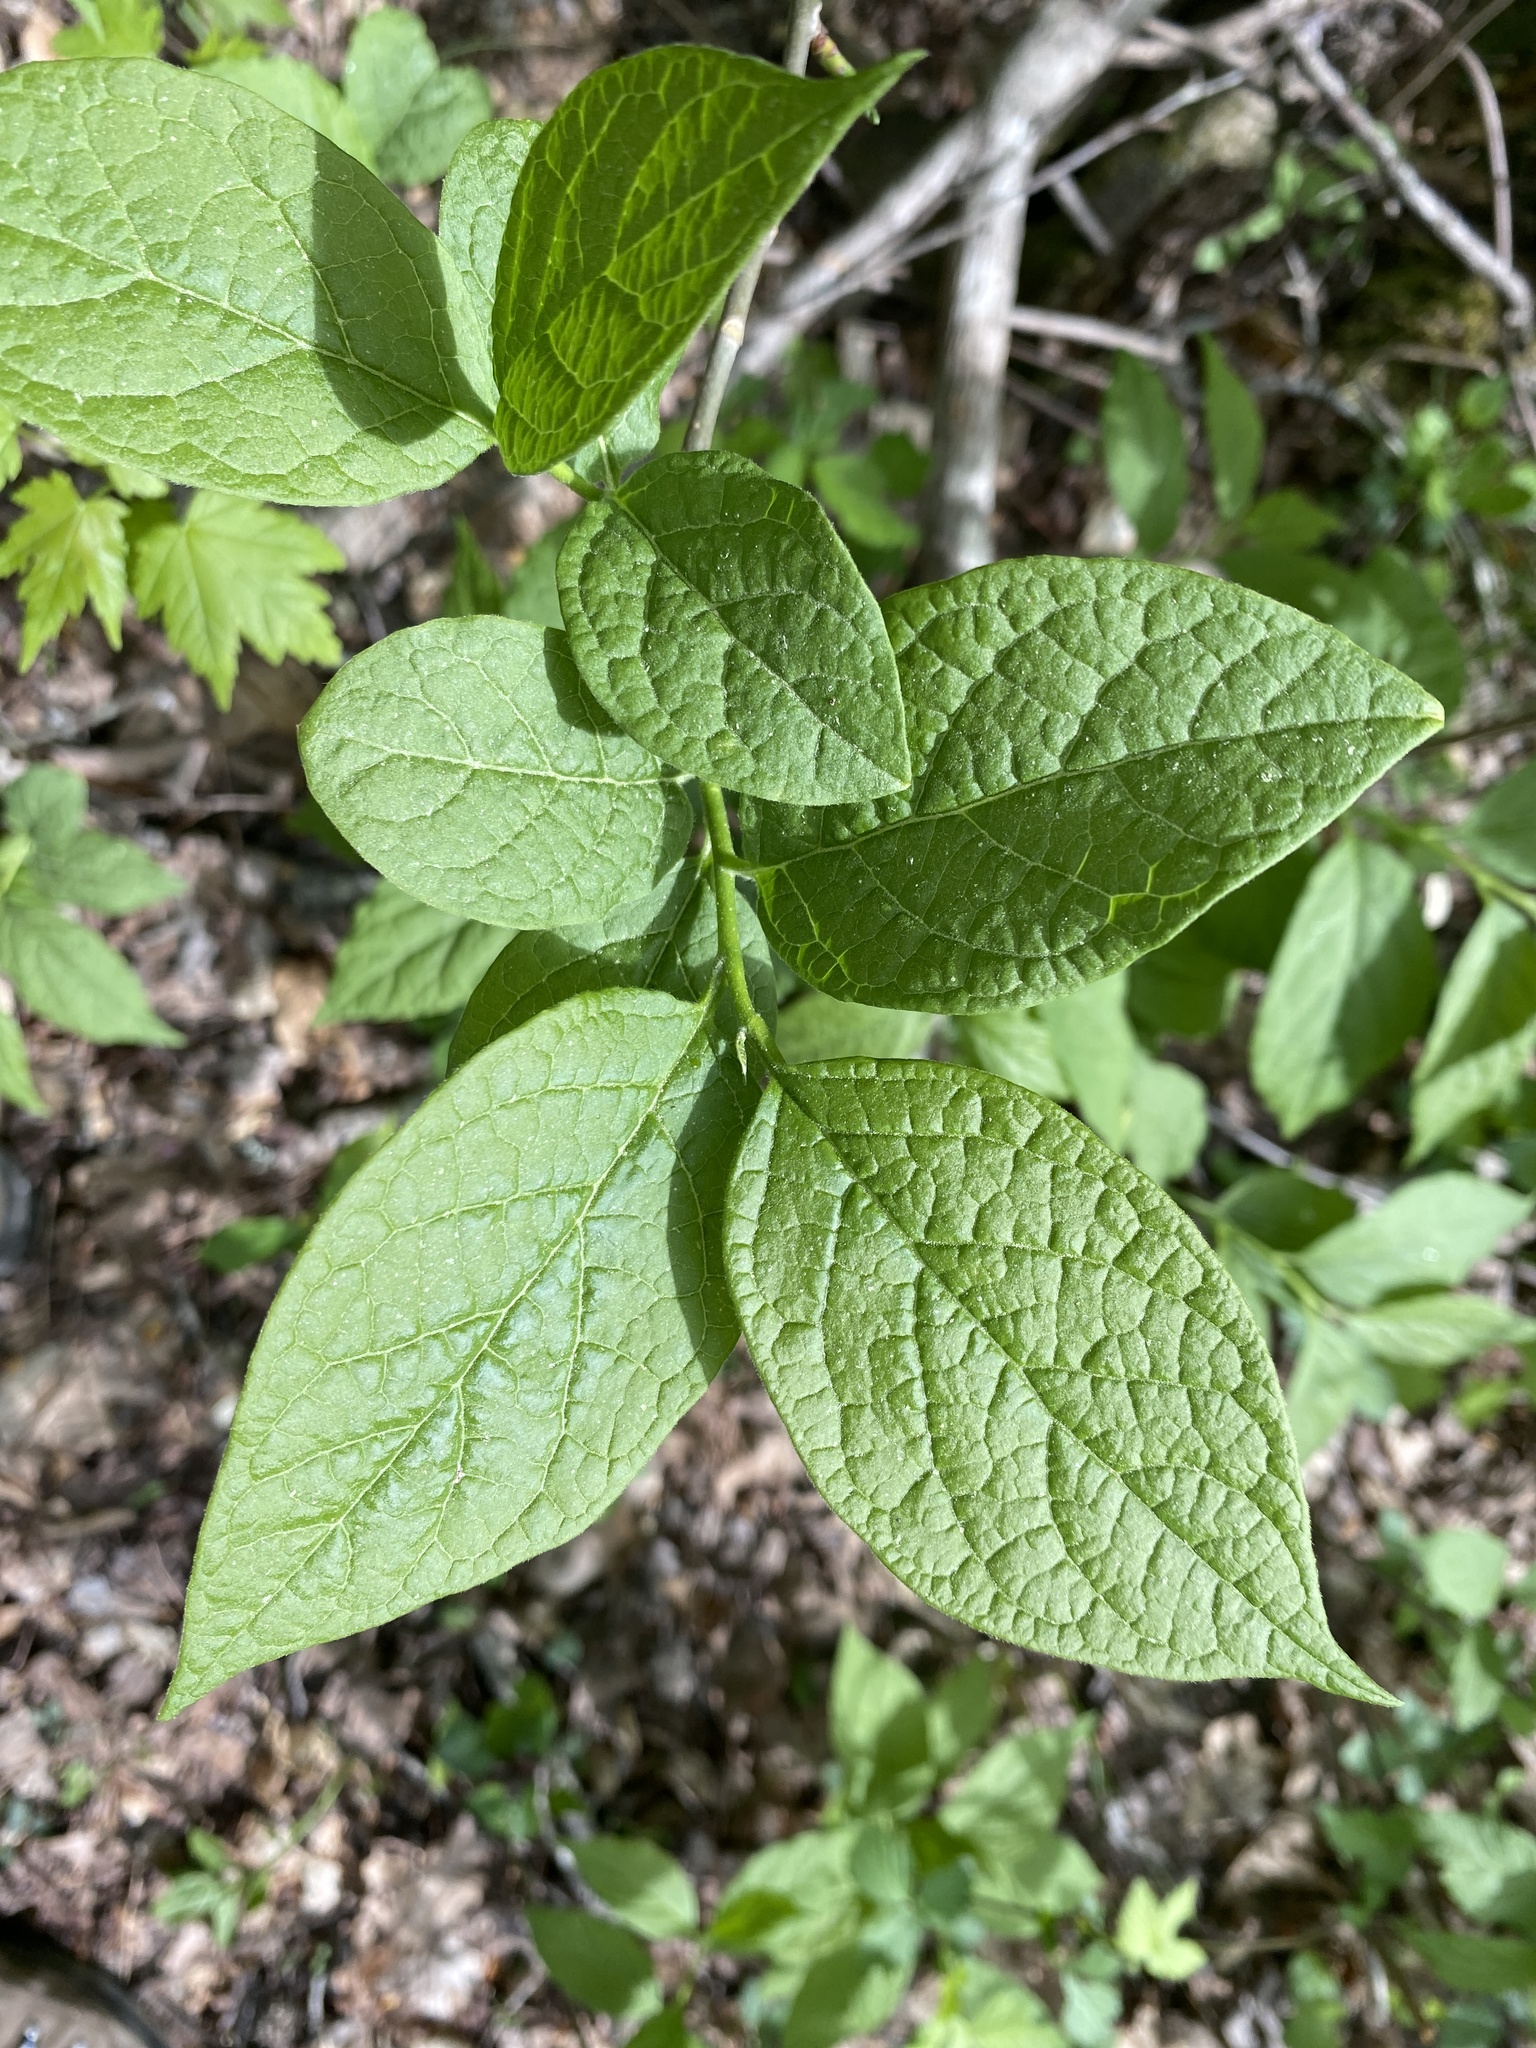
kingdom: Plantae
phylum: Tracheophyta
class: Magnoliopsida
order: Santalales
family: Cervantesiaceae
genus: Pyrularia
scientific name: Pyrularia pubera
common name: Oilnut
